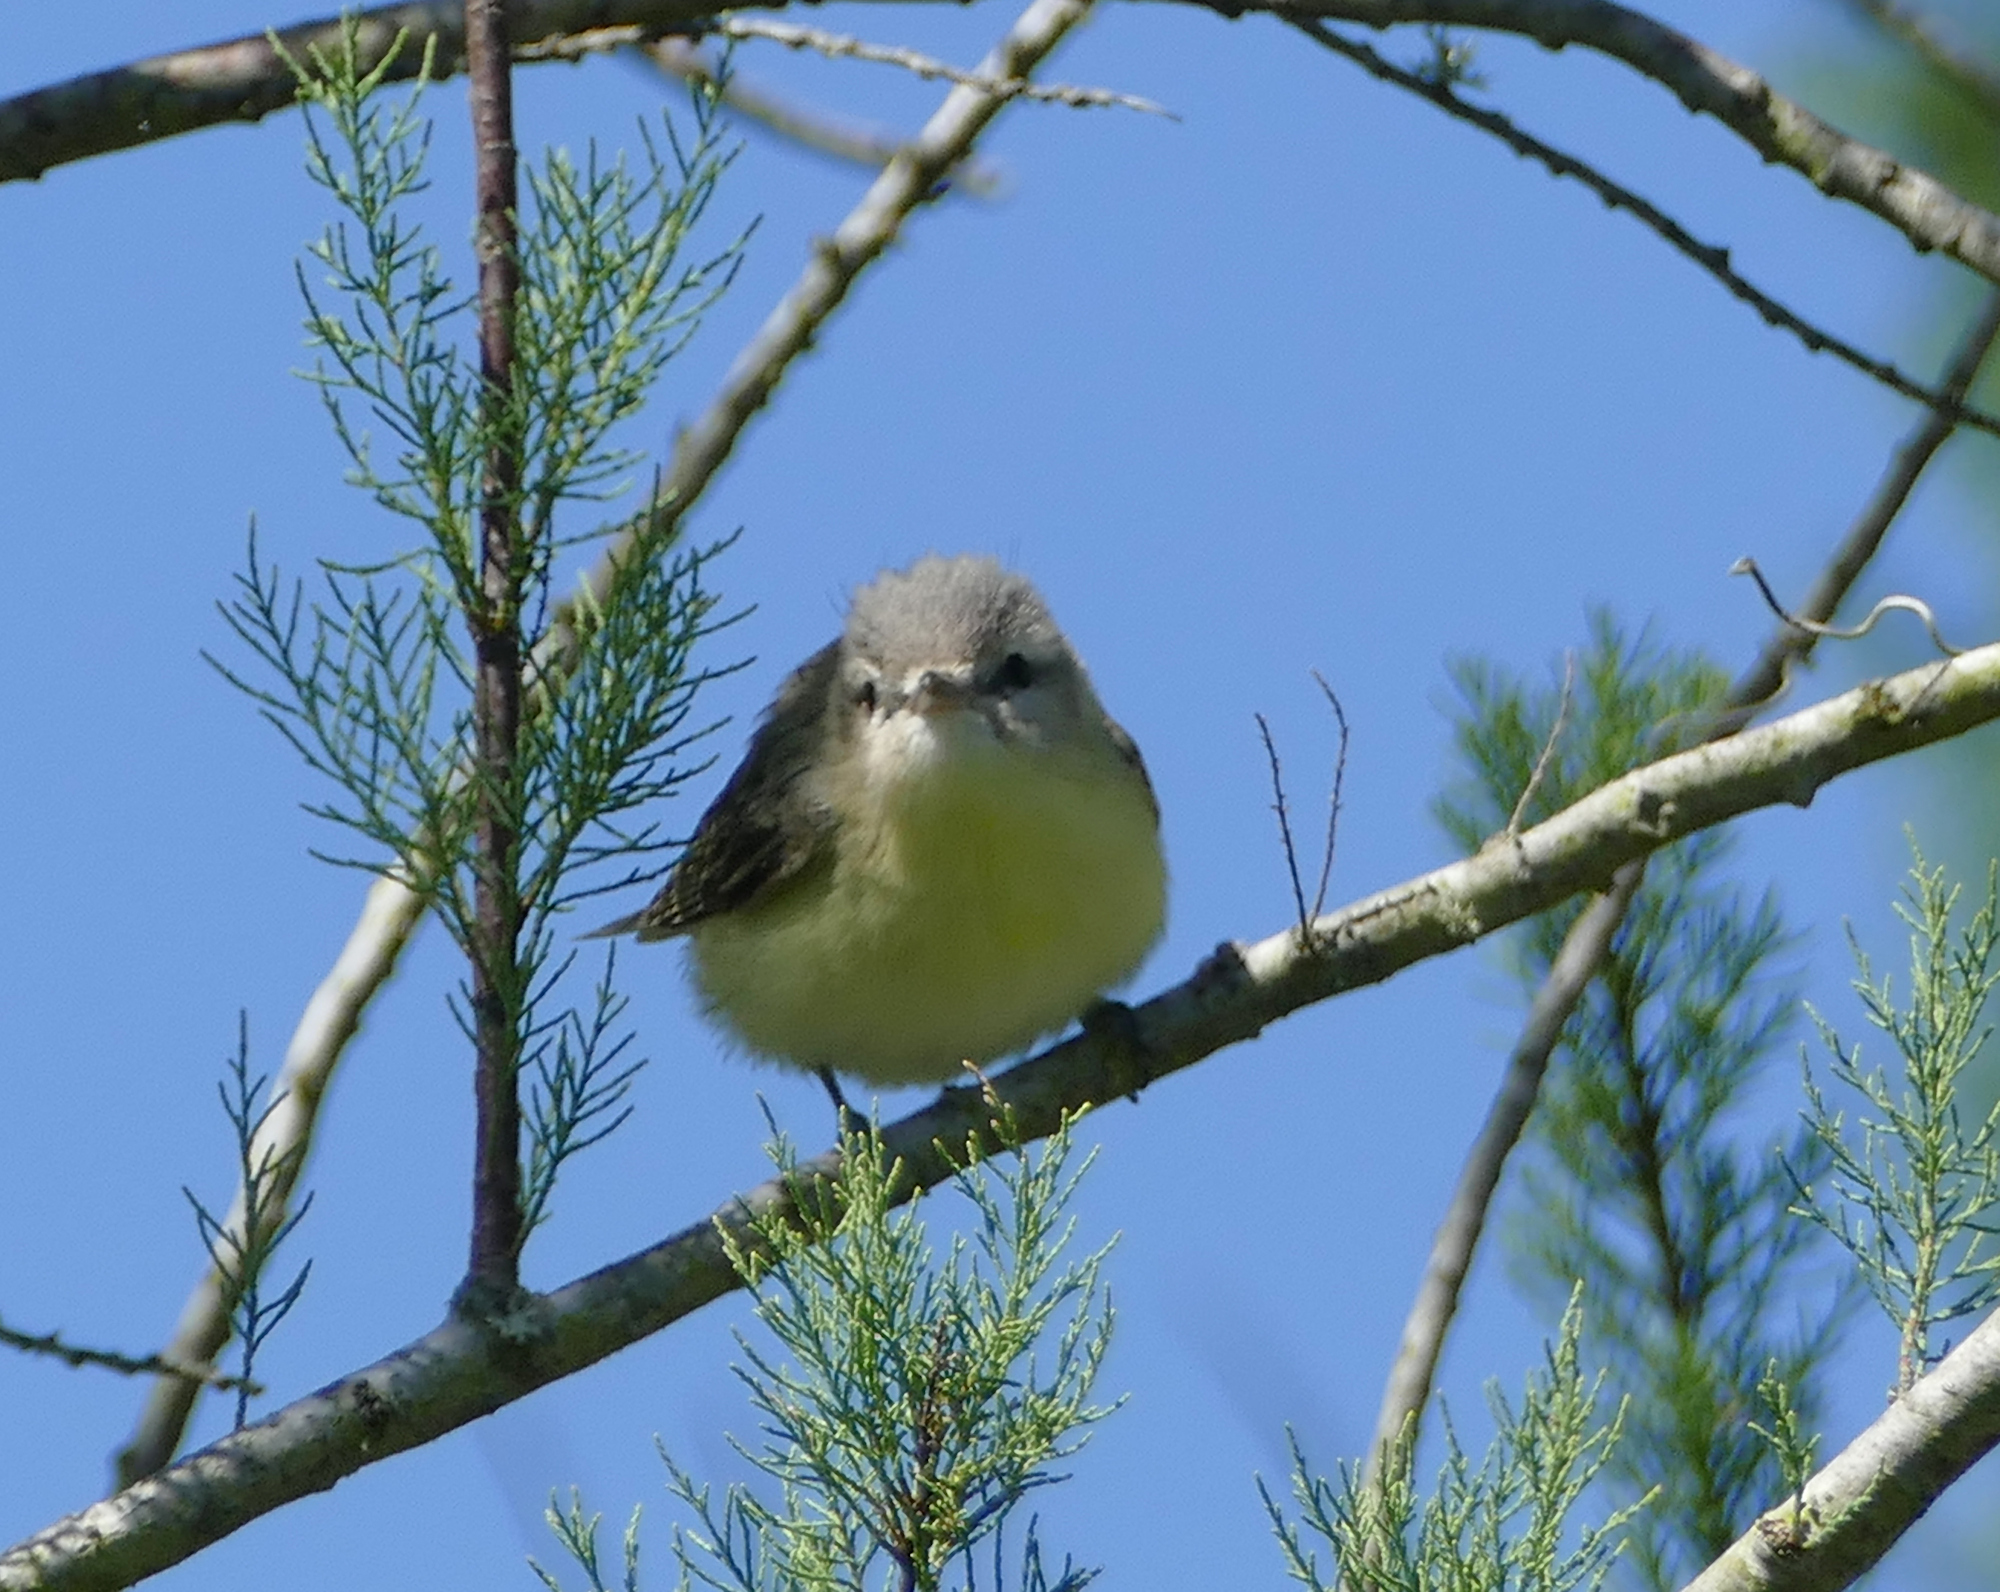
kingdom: Animalia
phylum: Chordata
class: Aves
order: Passeriformes
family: Vireonidae
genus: Vireo
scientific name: Vireo philadelphicus
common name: Philadelphia vireo
